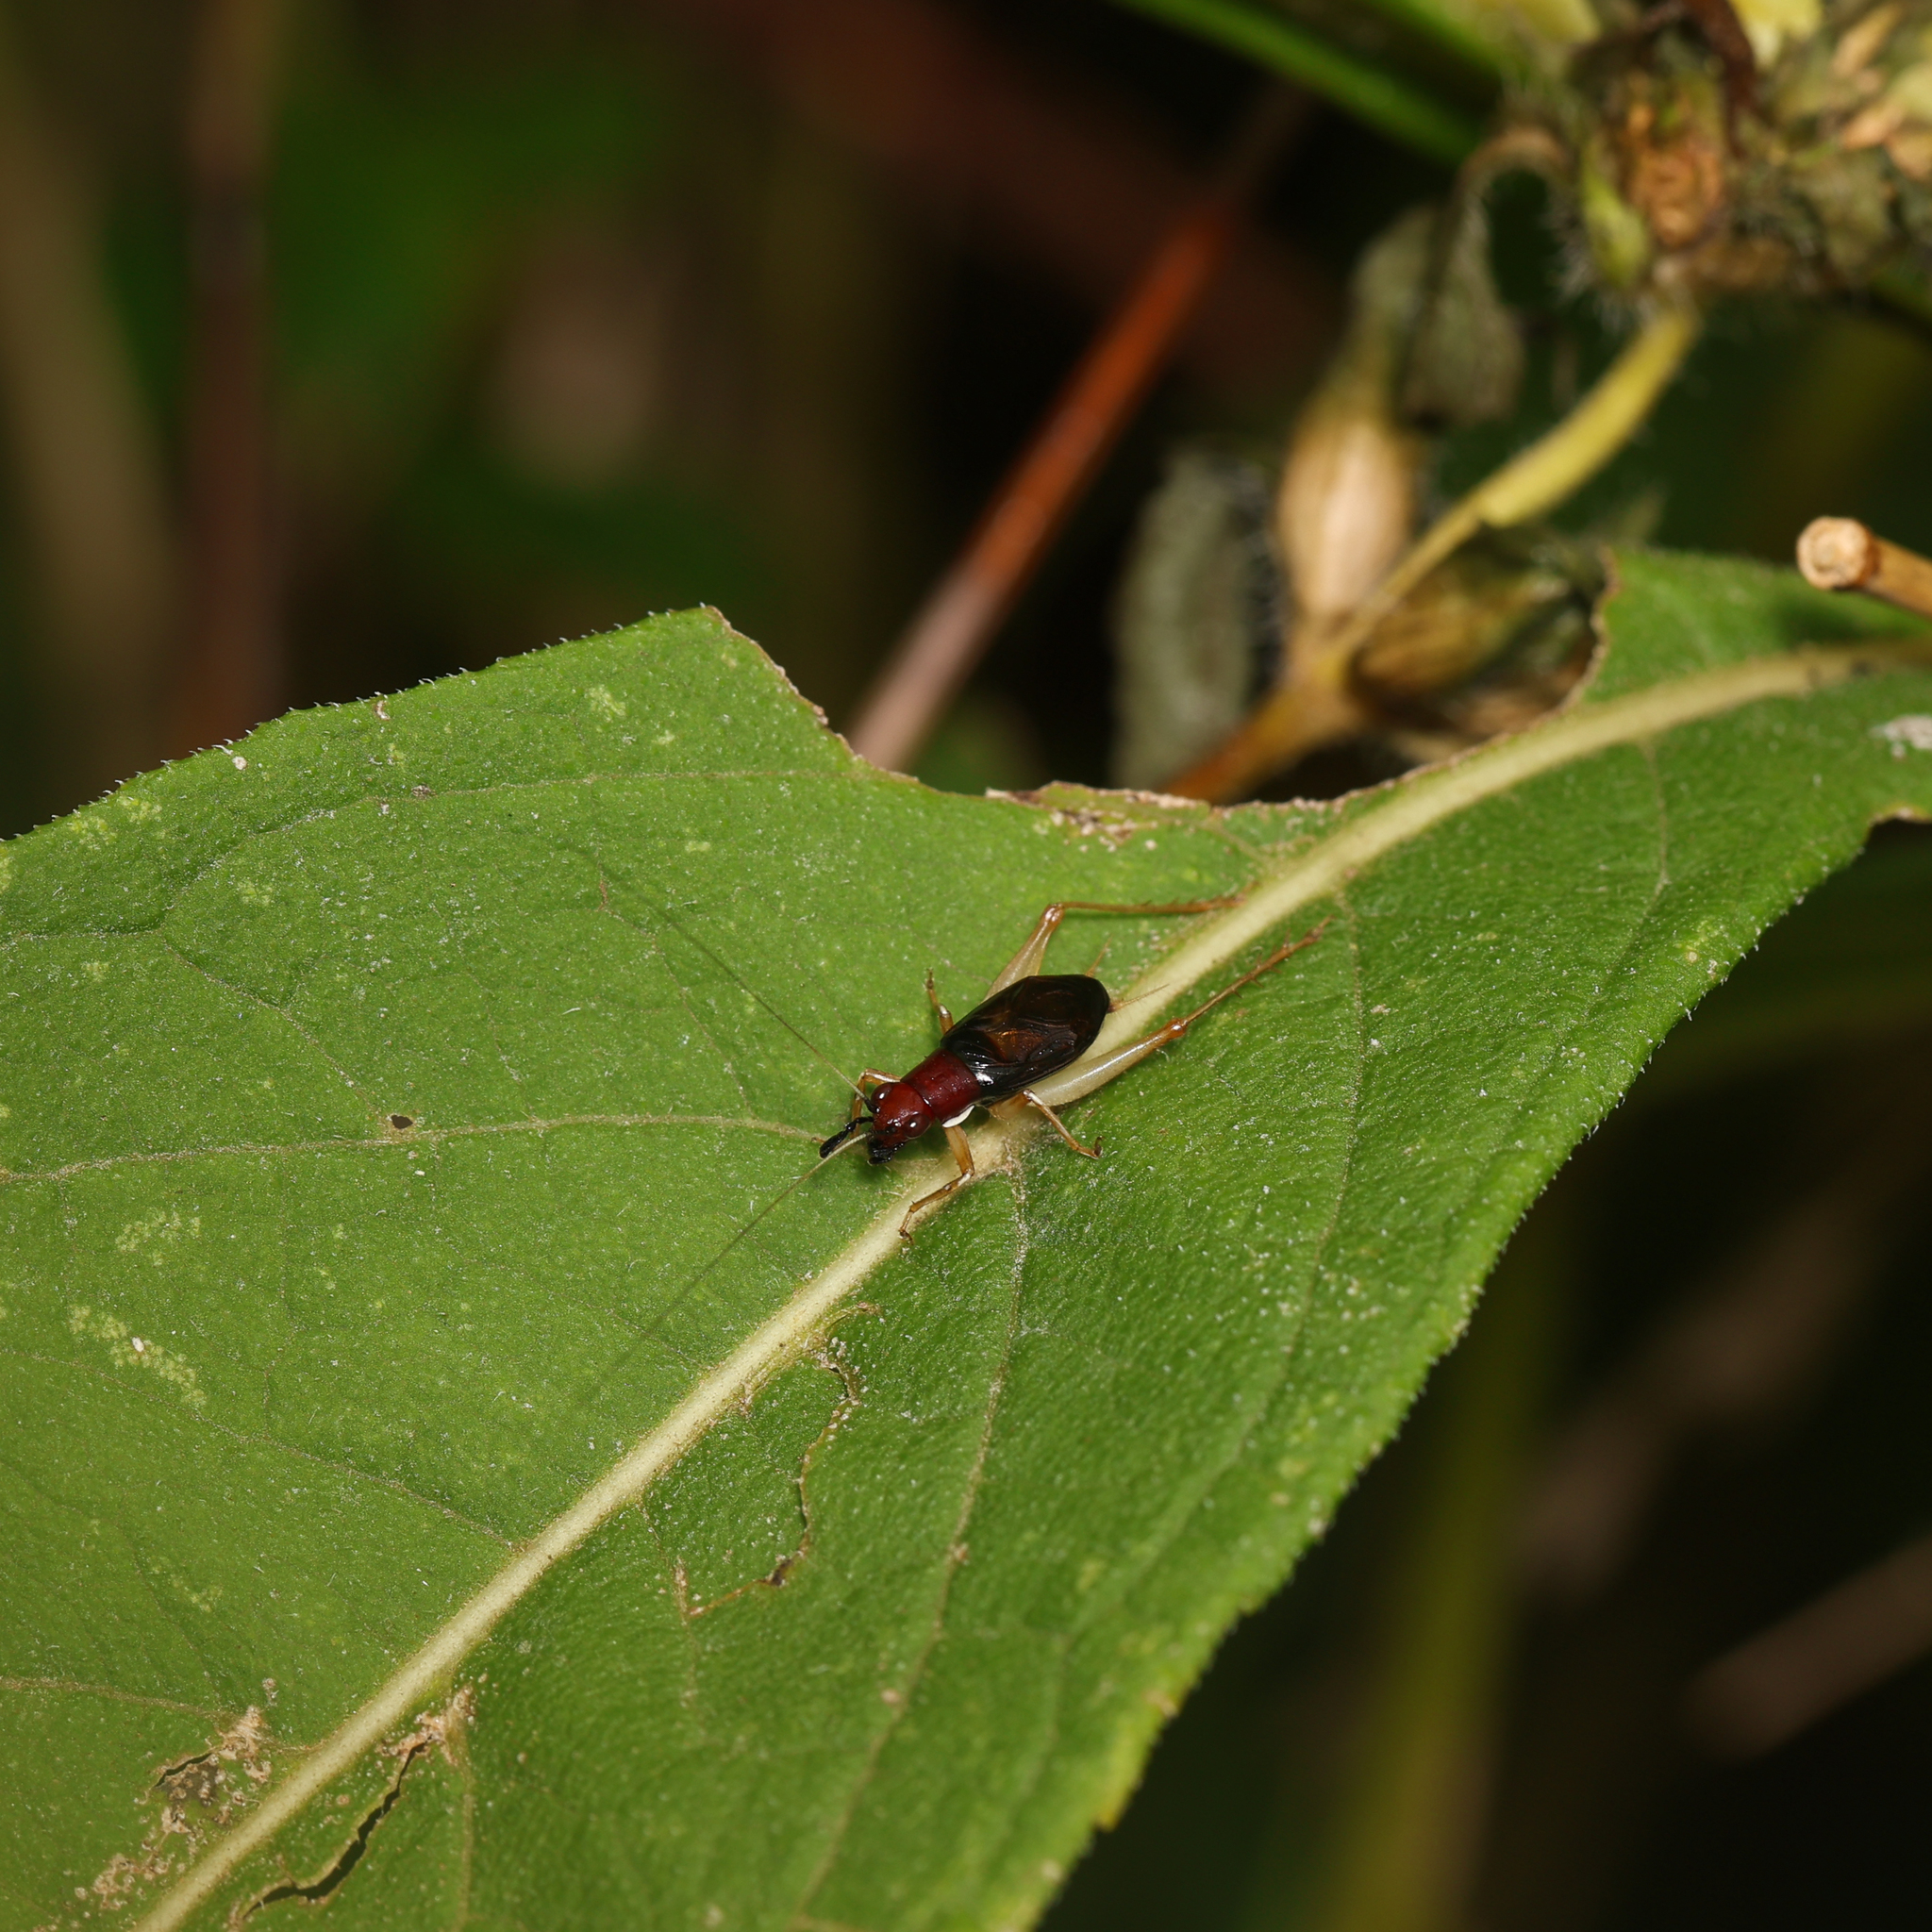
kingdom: Animalia
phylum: Arthropoda
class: Insecta
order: Orthoptera
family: Trigonidiidae
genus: Phyllopalpus
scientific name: Phyllopalpus pulchellus
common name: Handsome trig
